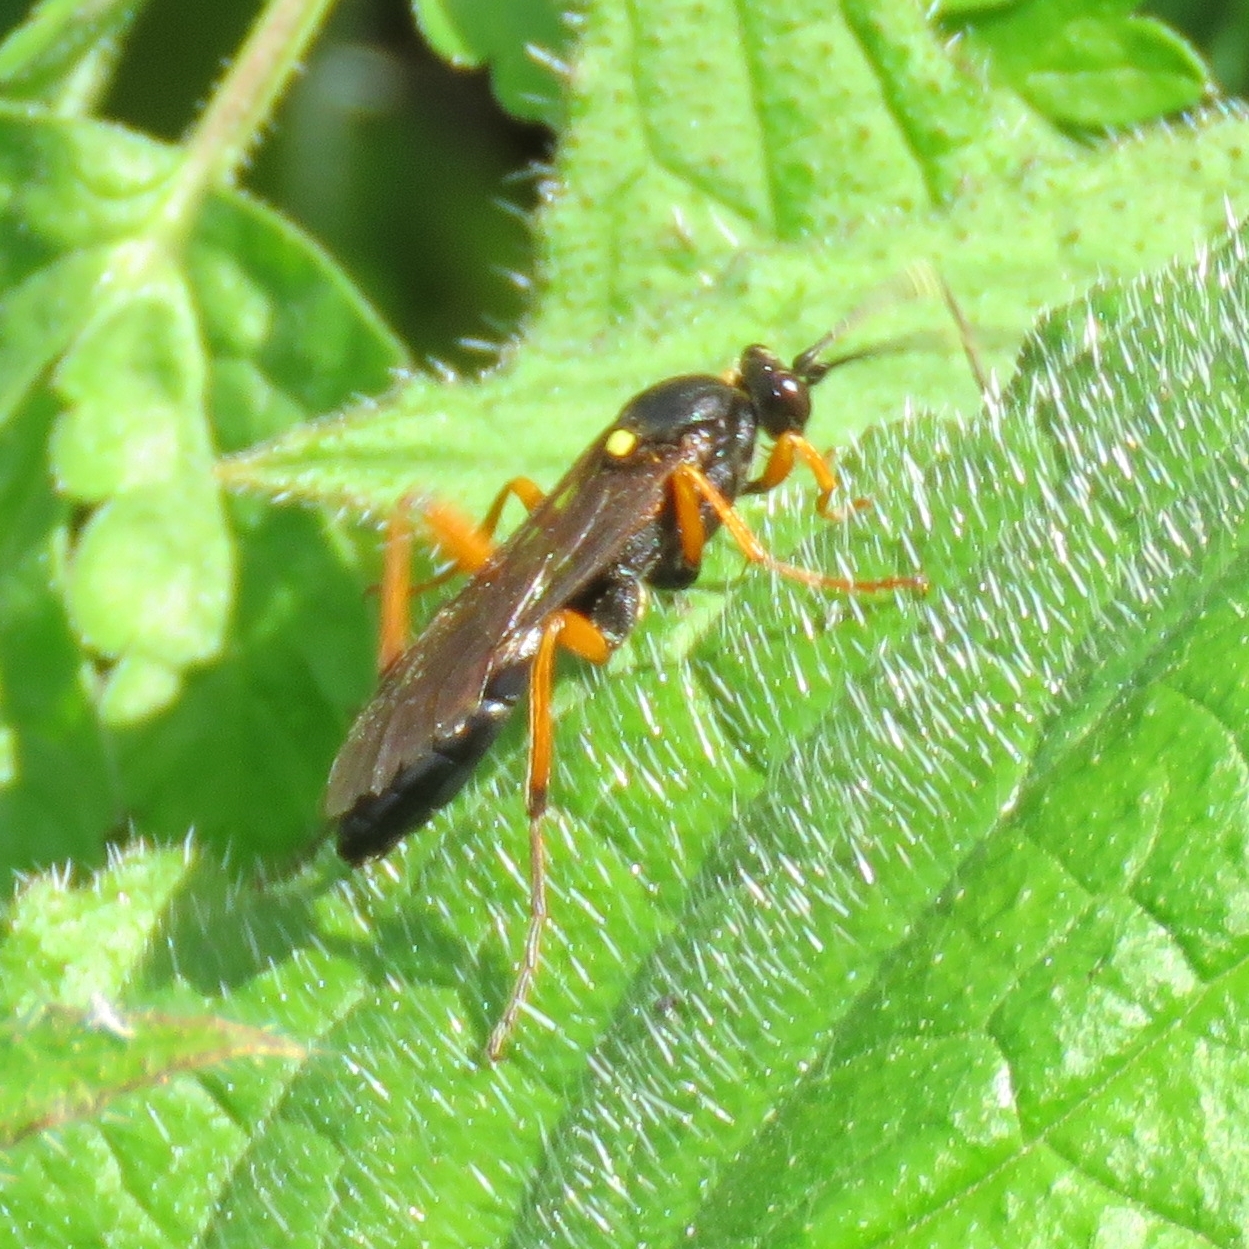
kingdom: Animalia
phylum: Arthropoda
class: Insecta
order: Hymenoptera
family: Ichneumonidae
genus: Diphyus
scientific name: Diphyus quadripunctorius
